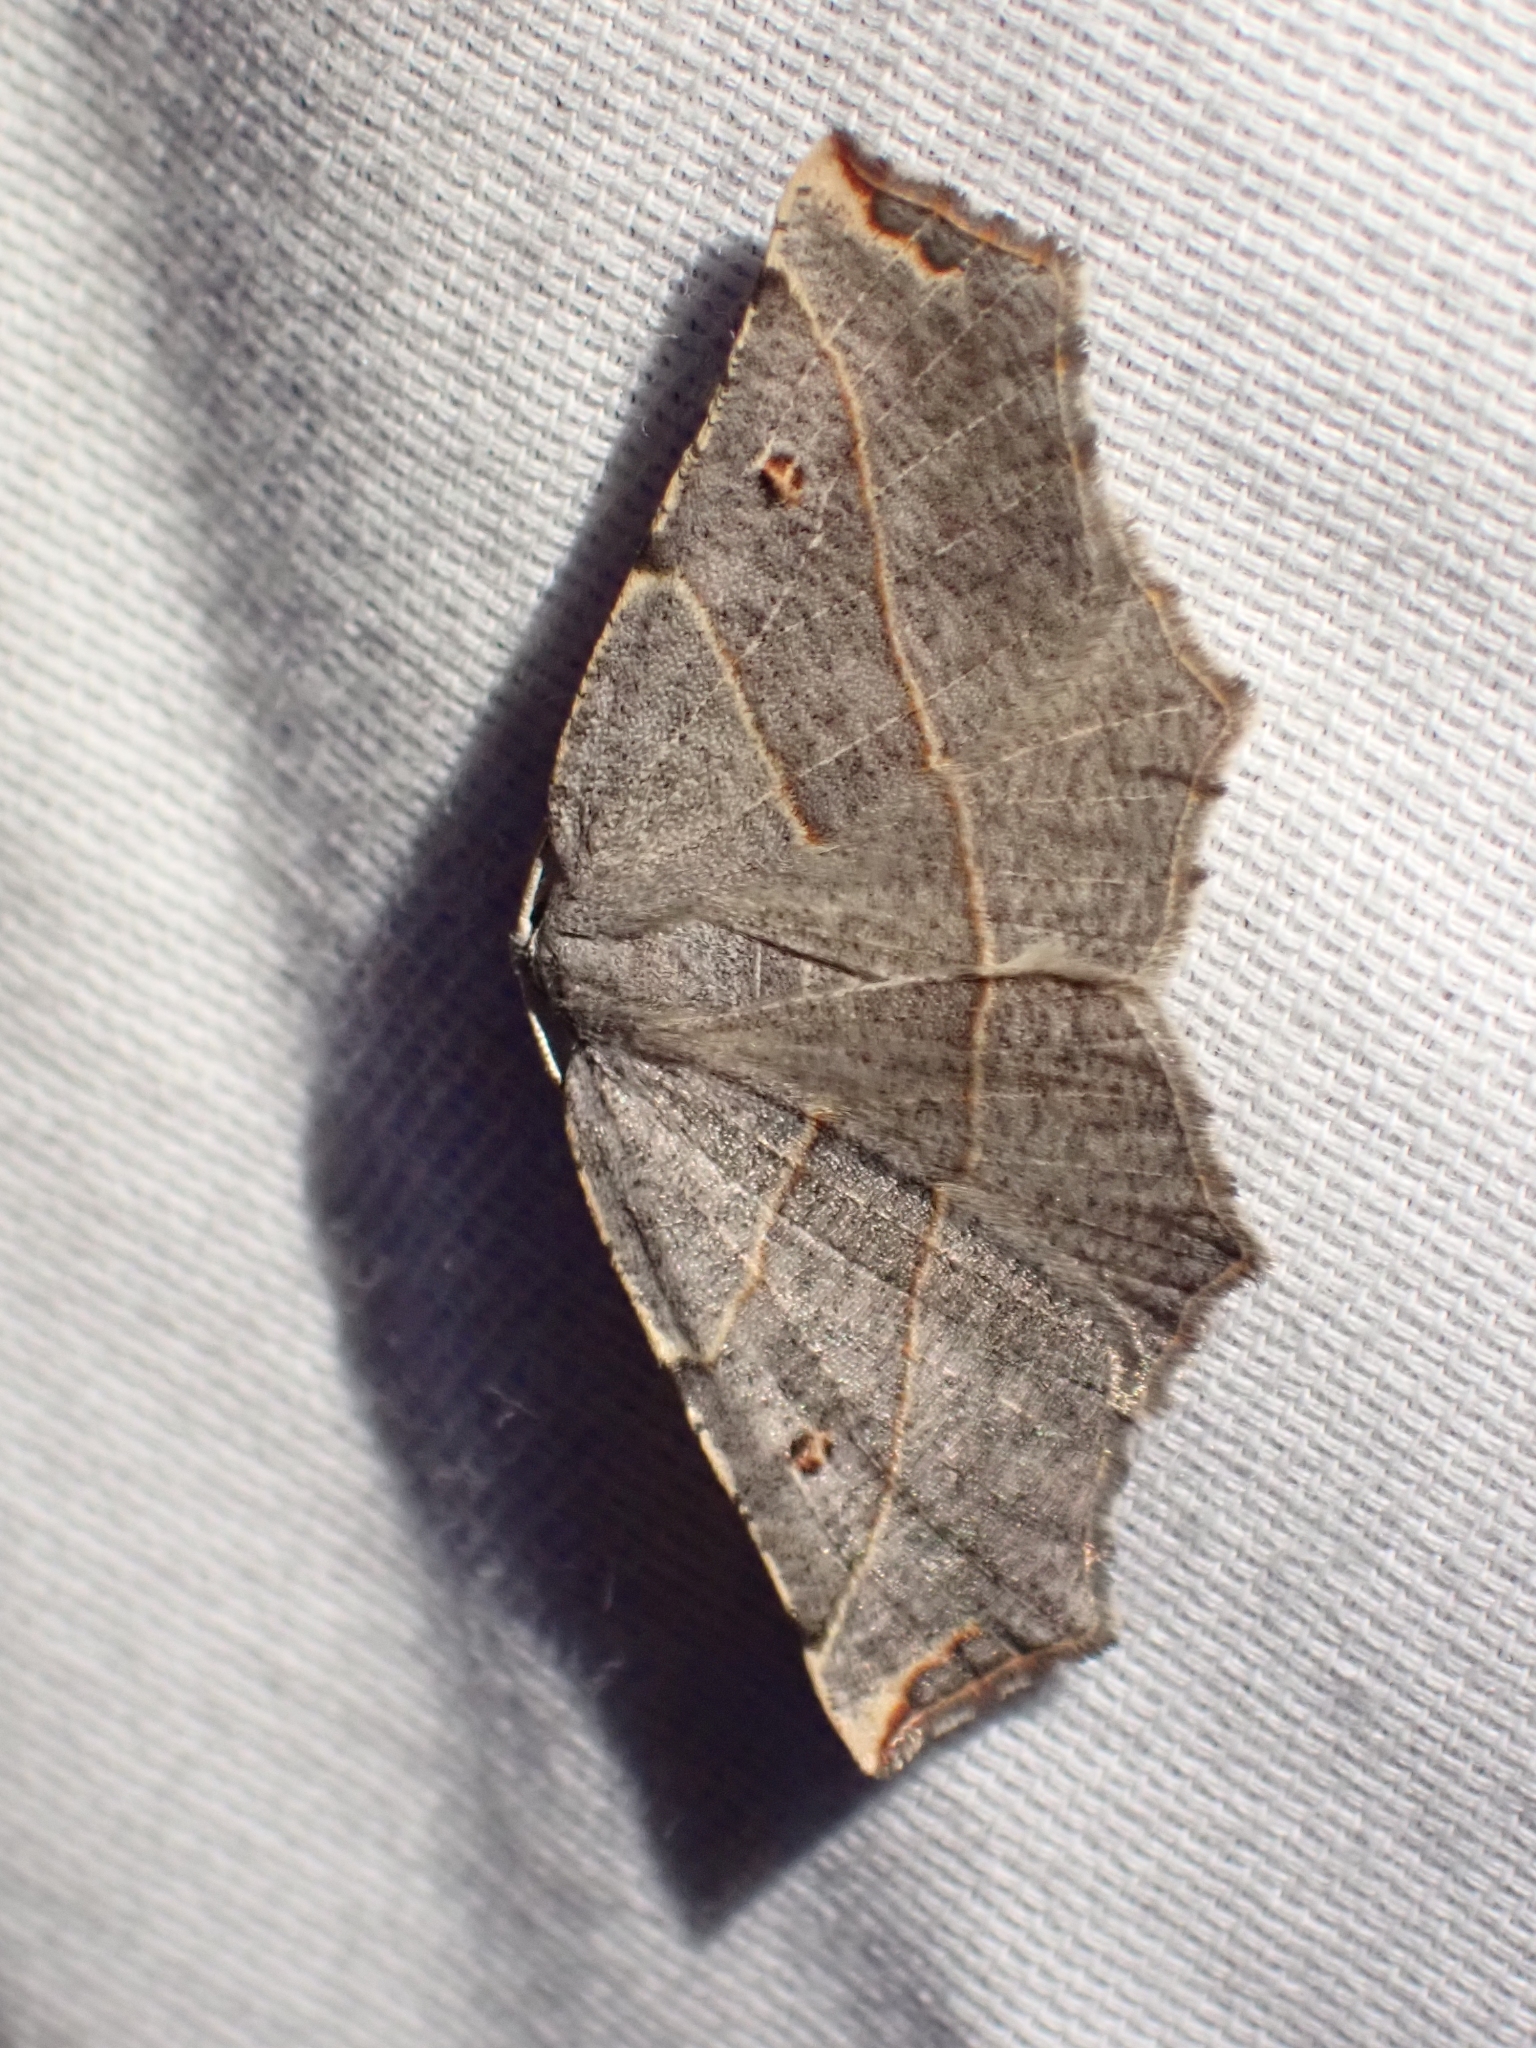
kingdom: Animalia
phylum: Arthropoda
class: Insecta
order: Lepidoptera
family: Geometridae
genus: Metanema
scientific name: Metanema inatomaria
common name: Pale metanema
